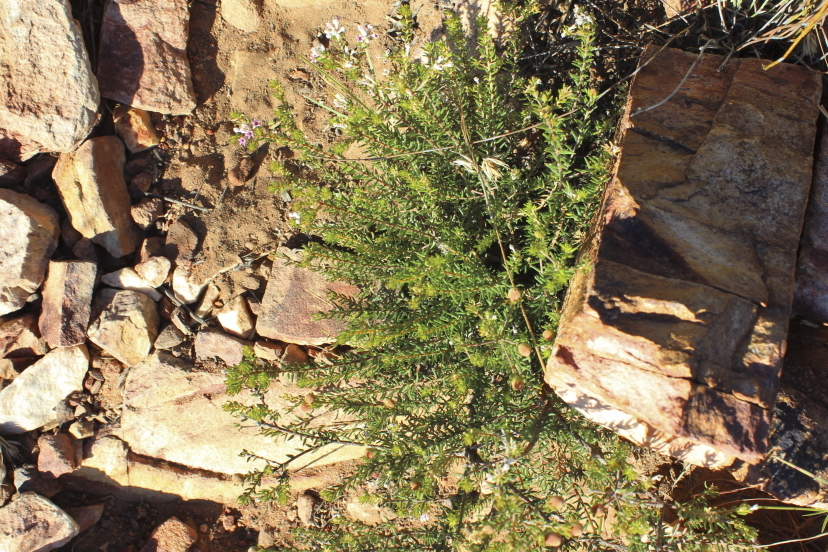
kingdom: Plantae
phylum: Tracheophyta
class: Magnoliopsida
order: Rosales
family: Rhamnaceae
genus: Phylica
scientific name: Phylica lachneaeoides
